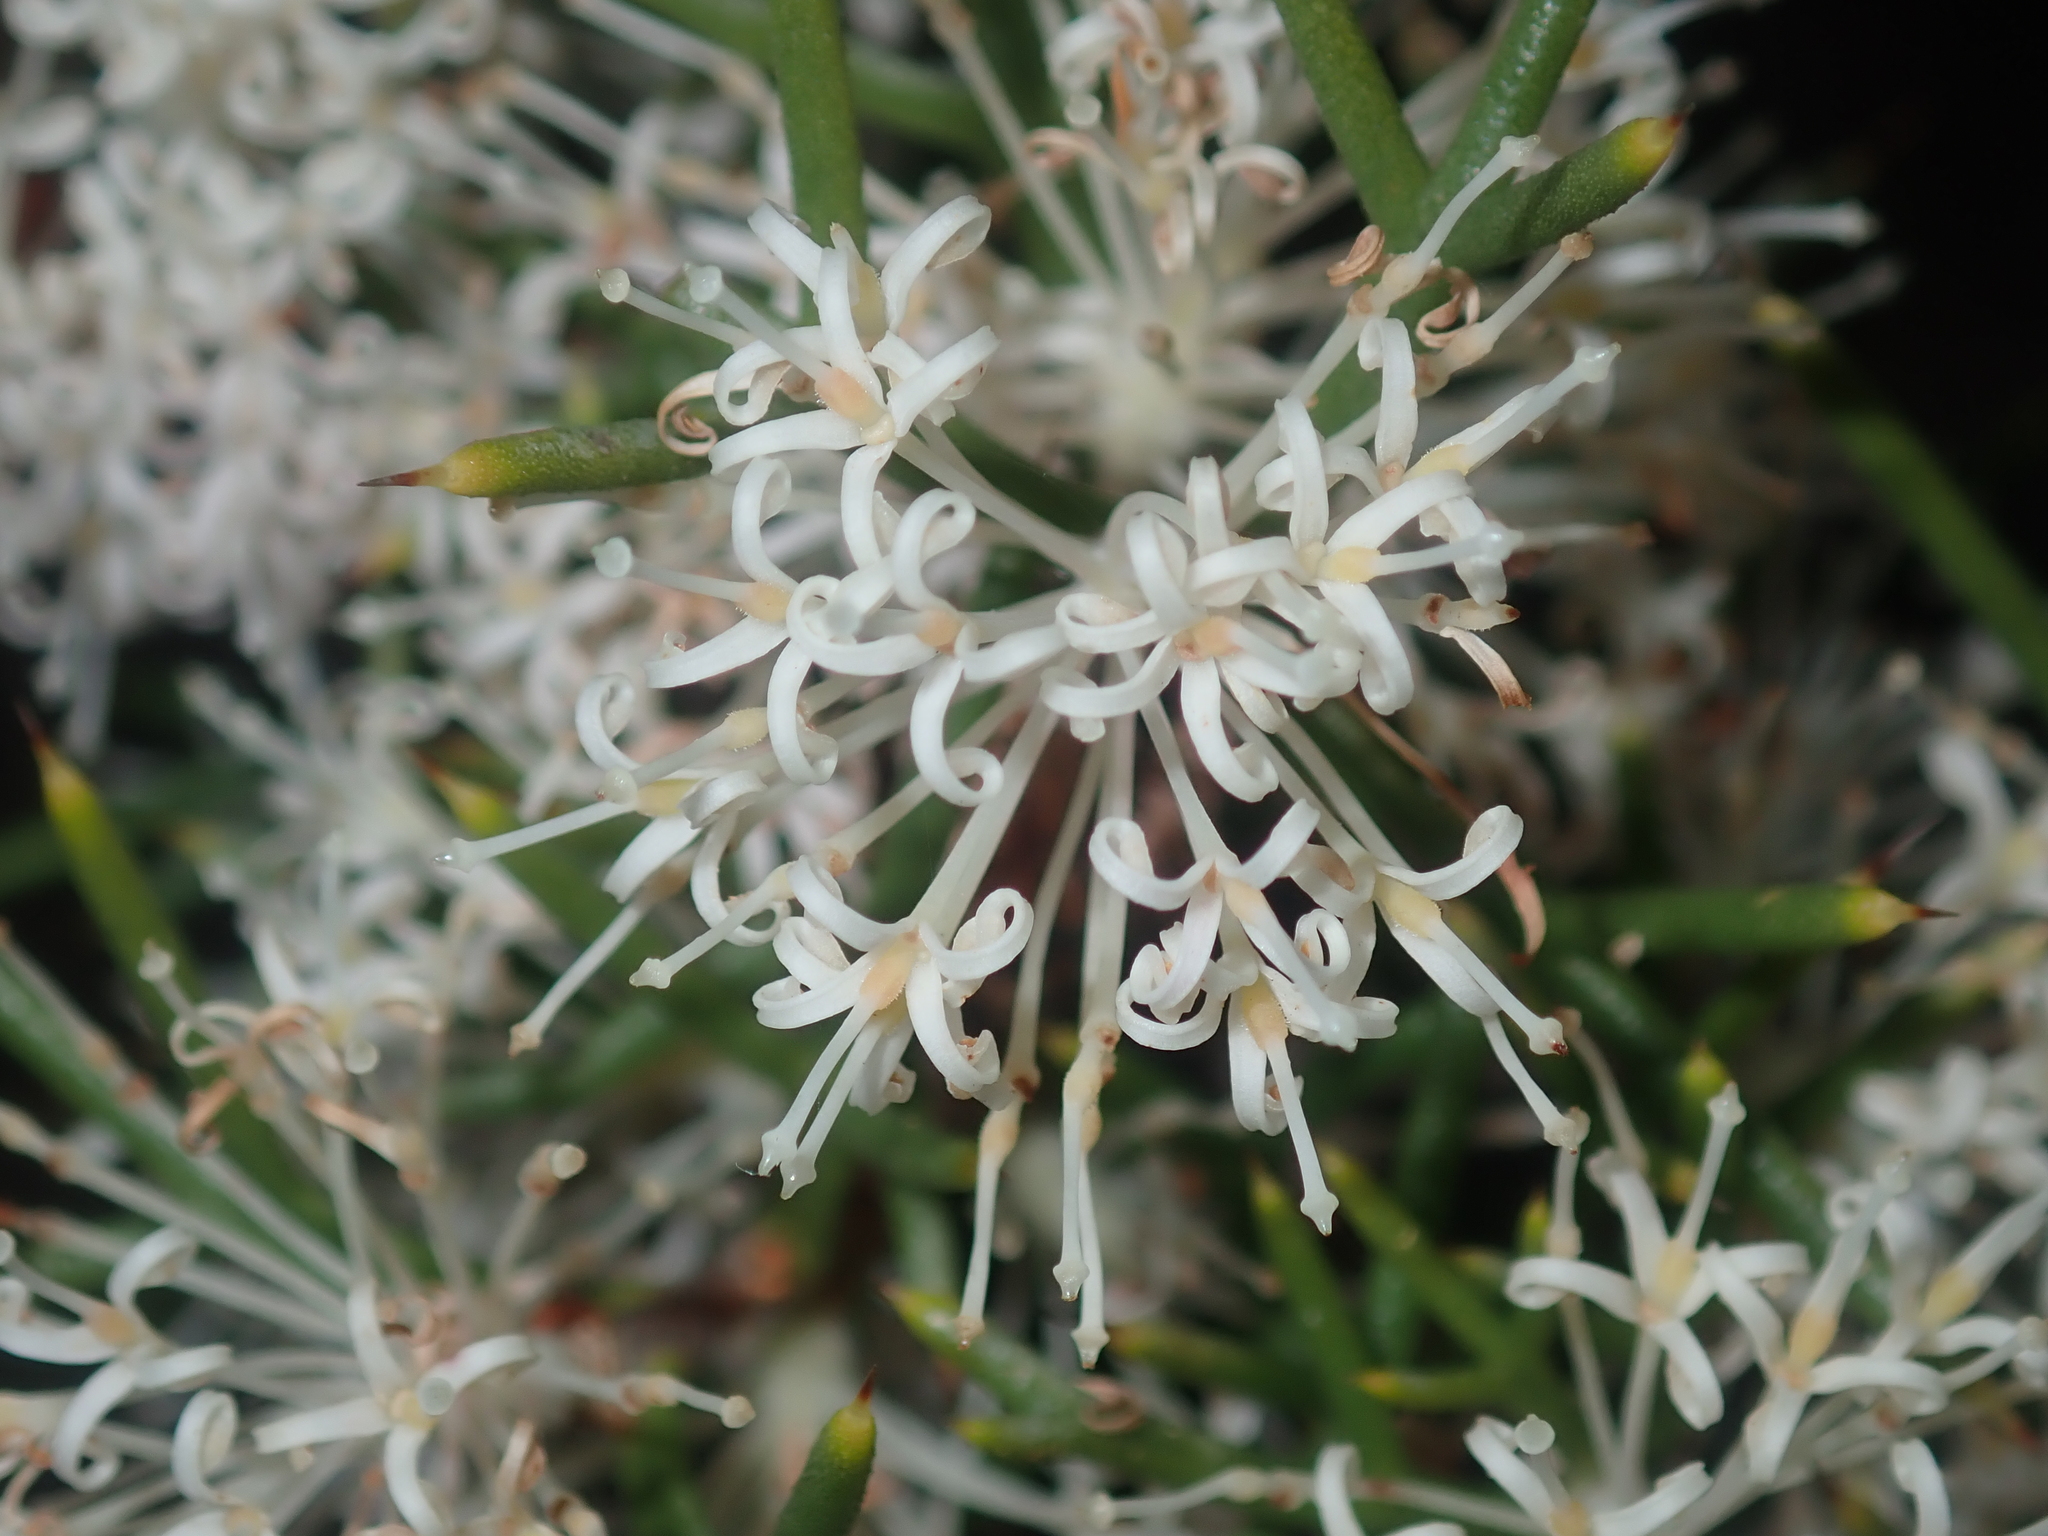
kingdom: Plantae
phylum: Tracheophyta
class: Magnoliopsida
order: Proteales
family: Proteaceae
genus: Hakea
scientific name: Hakea lissocarpha
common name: Honey bush
